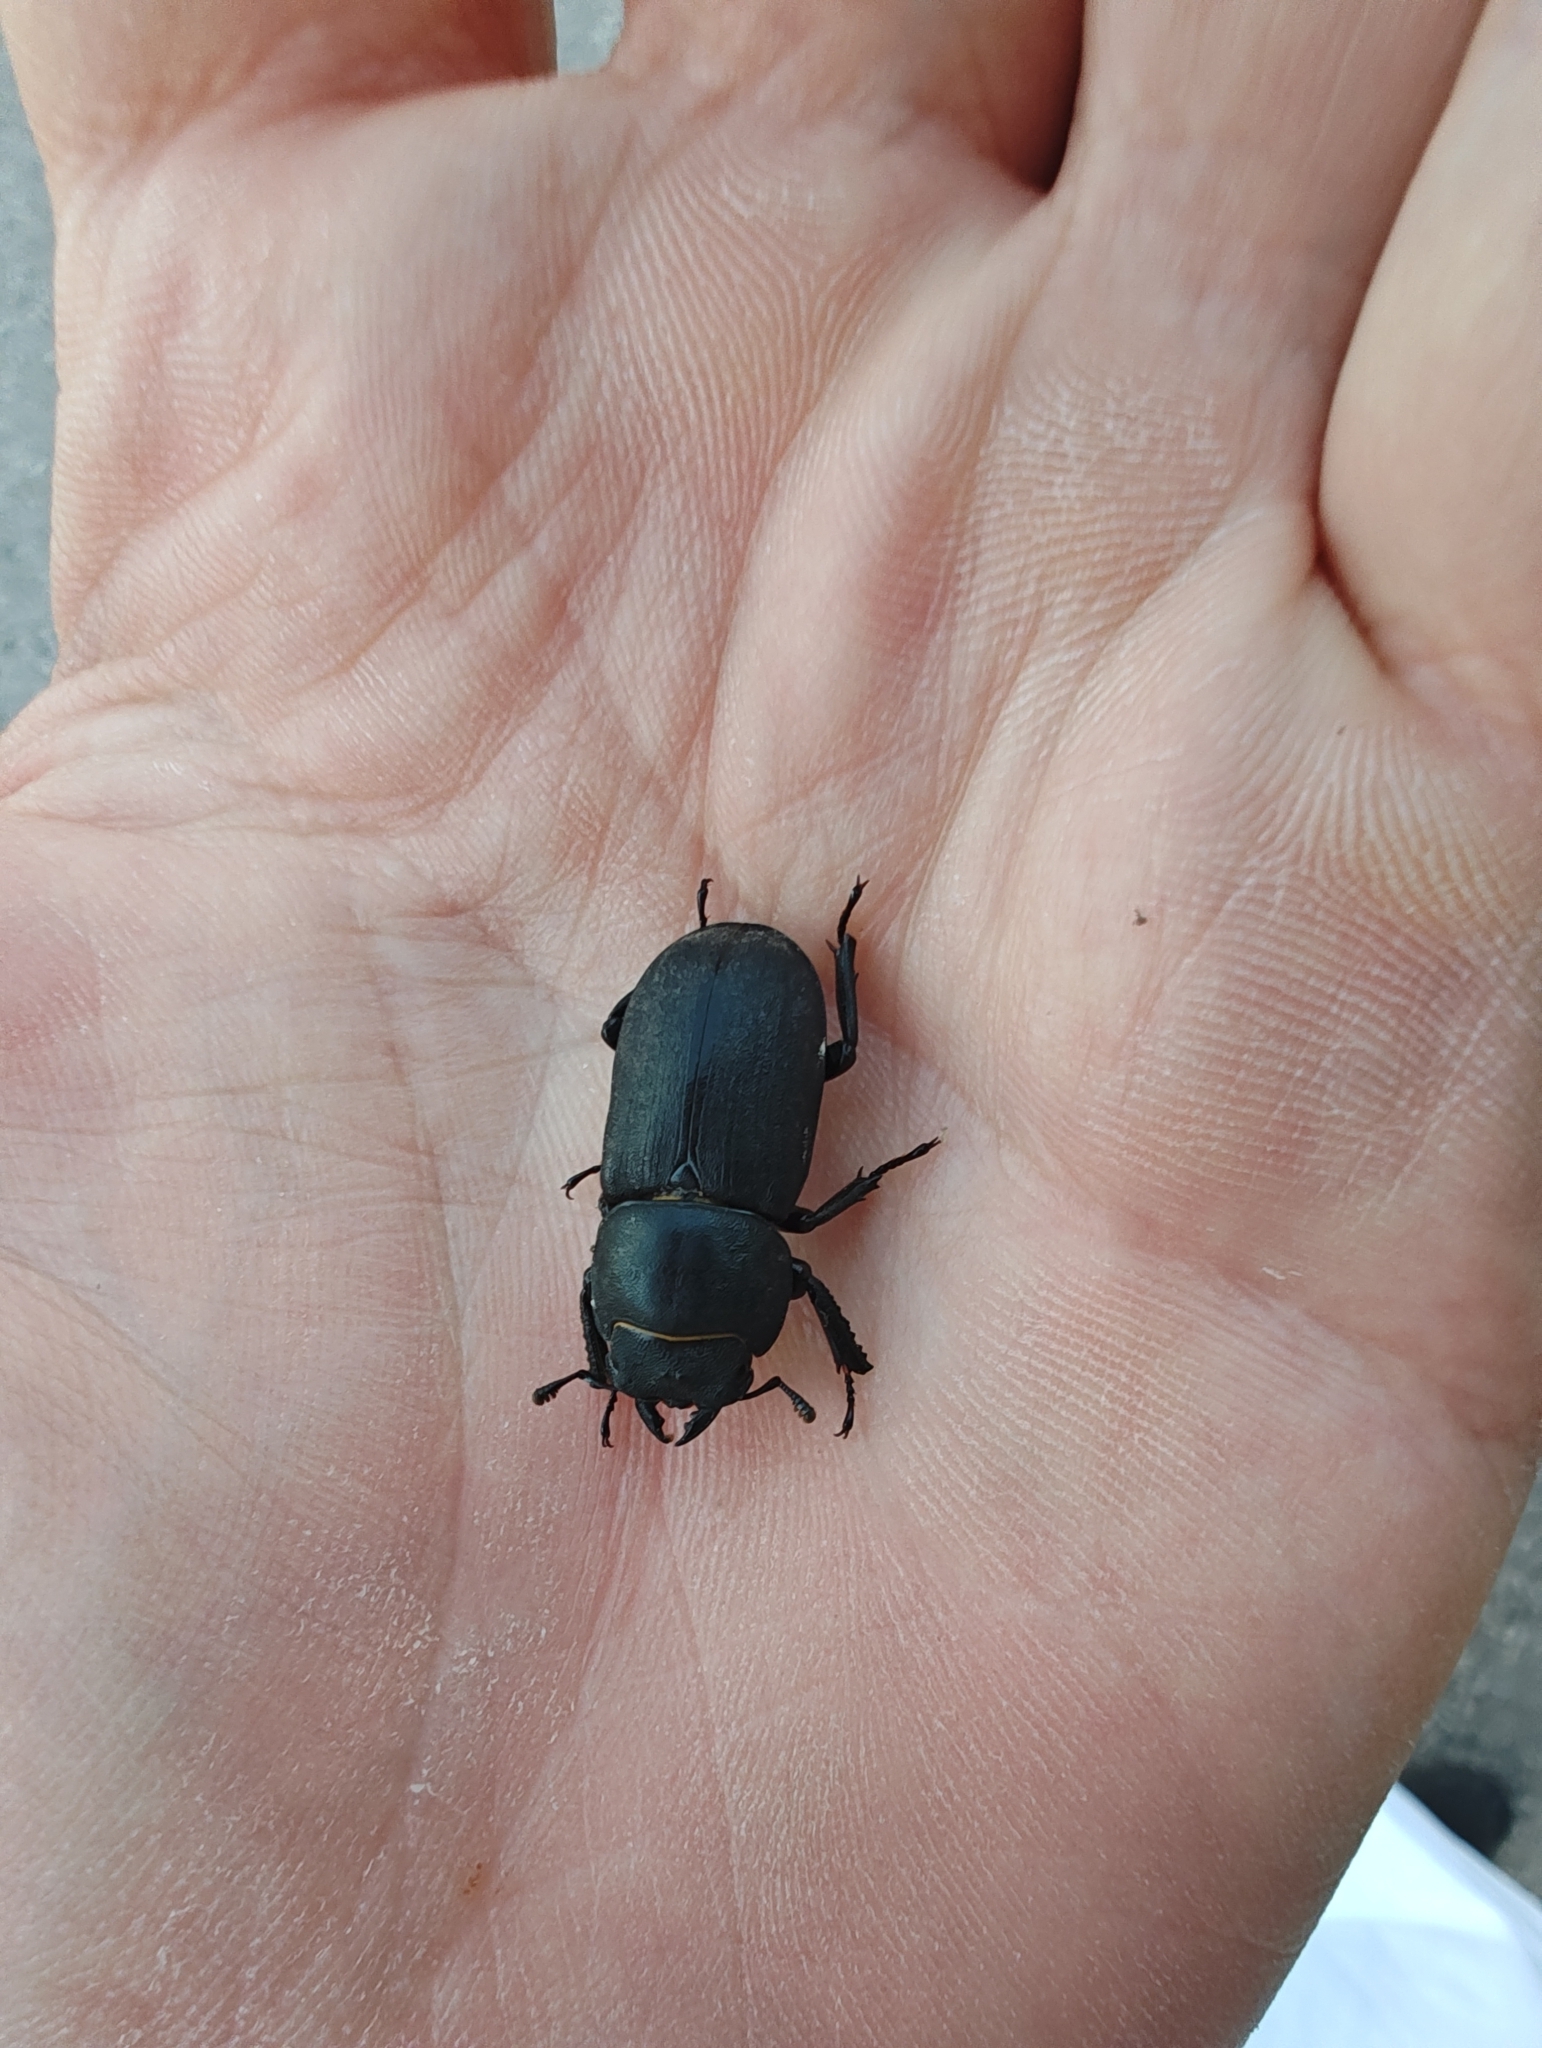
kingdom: Animalia
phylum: Arthropoda
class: Insecta
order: Coleoptera
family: Lucanidae
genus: Dorcus
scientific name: Dorcus parallelipipedus
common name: Lesser stag beetle
